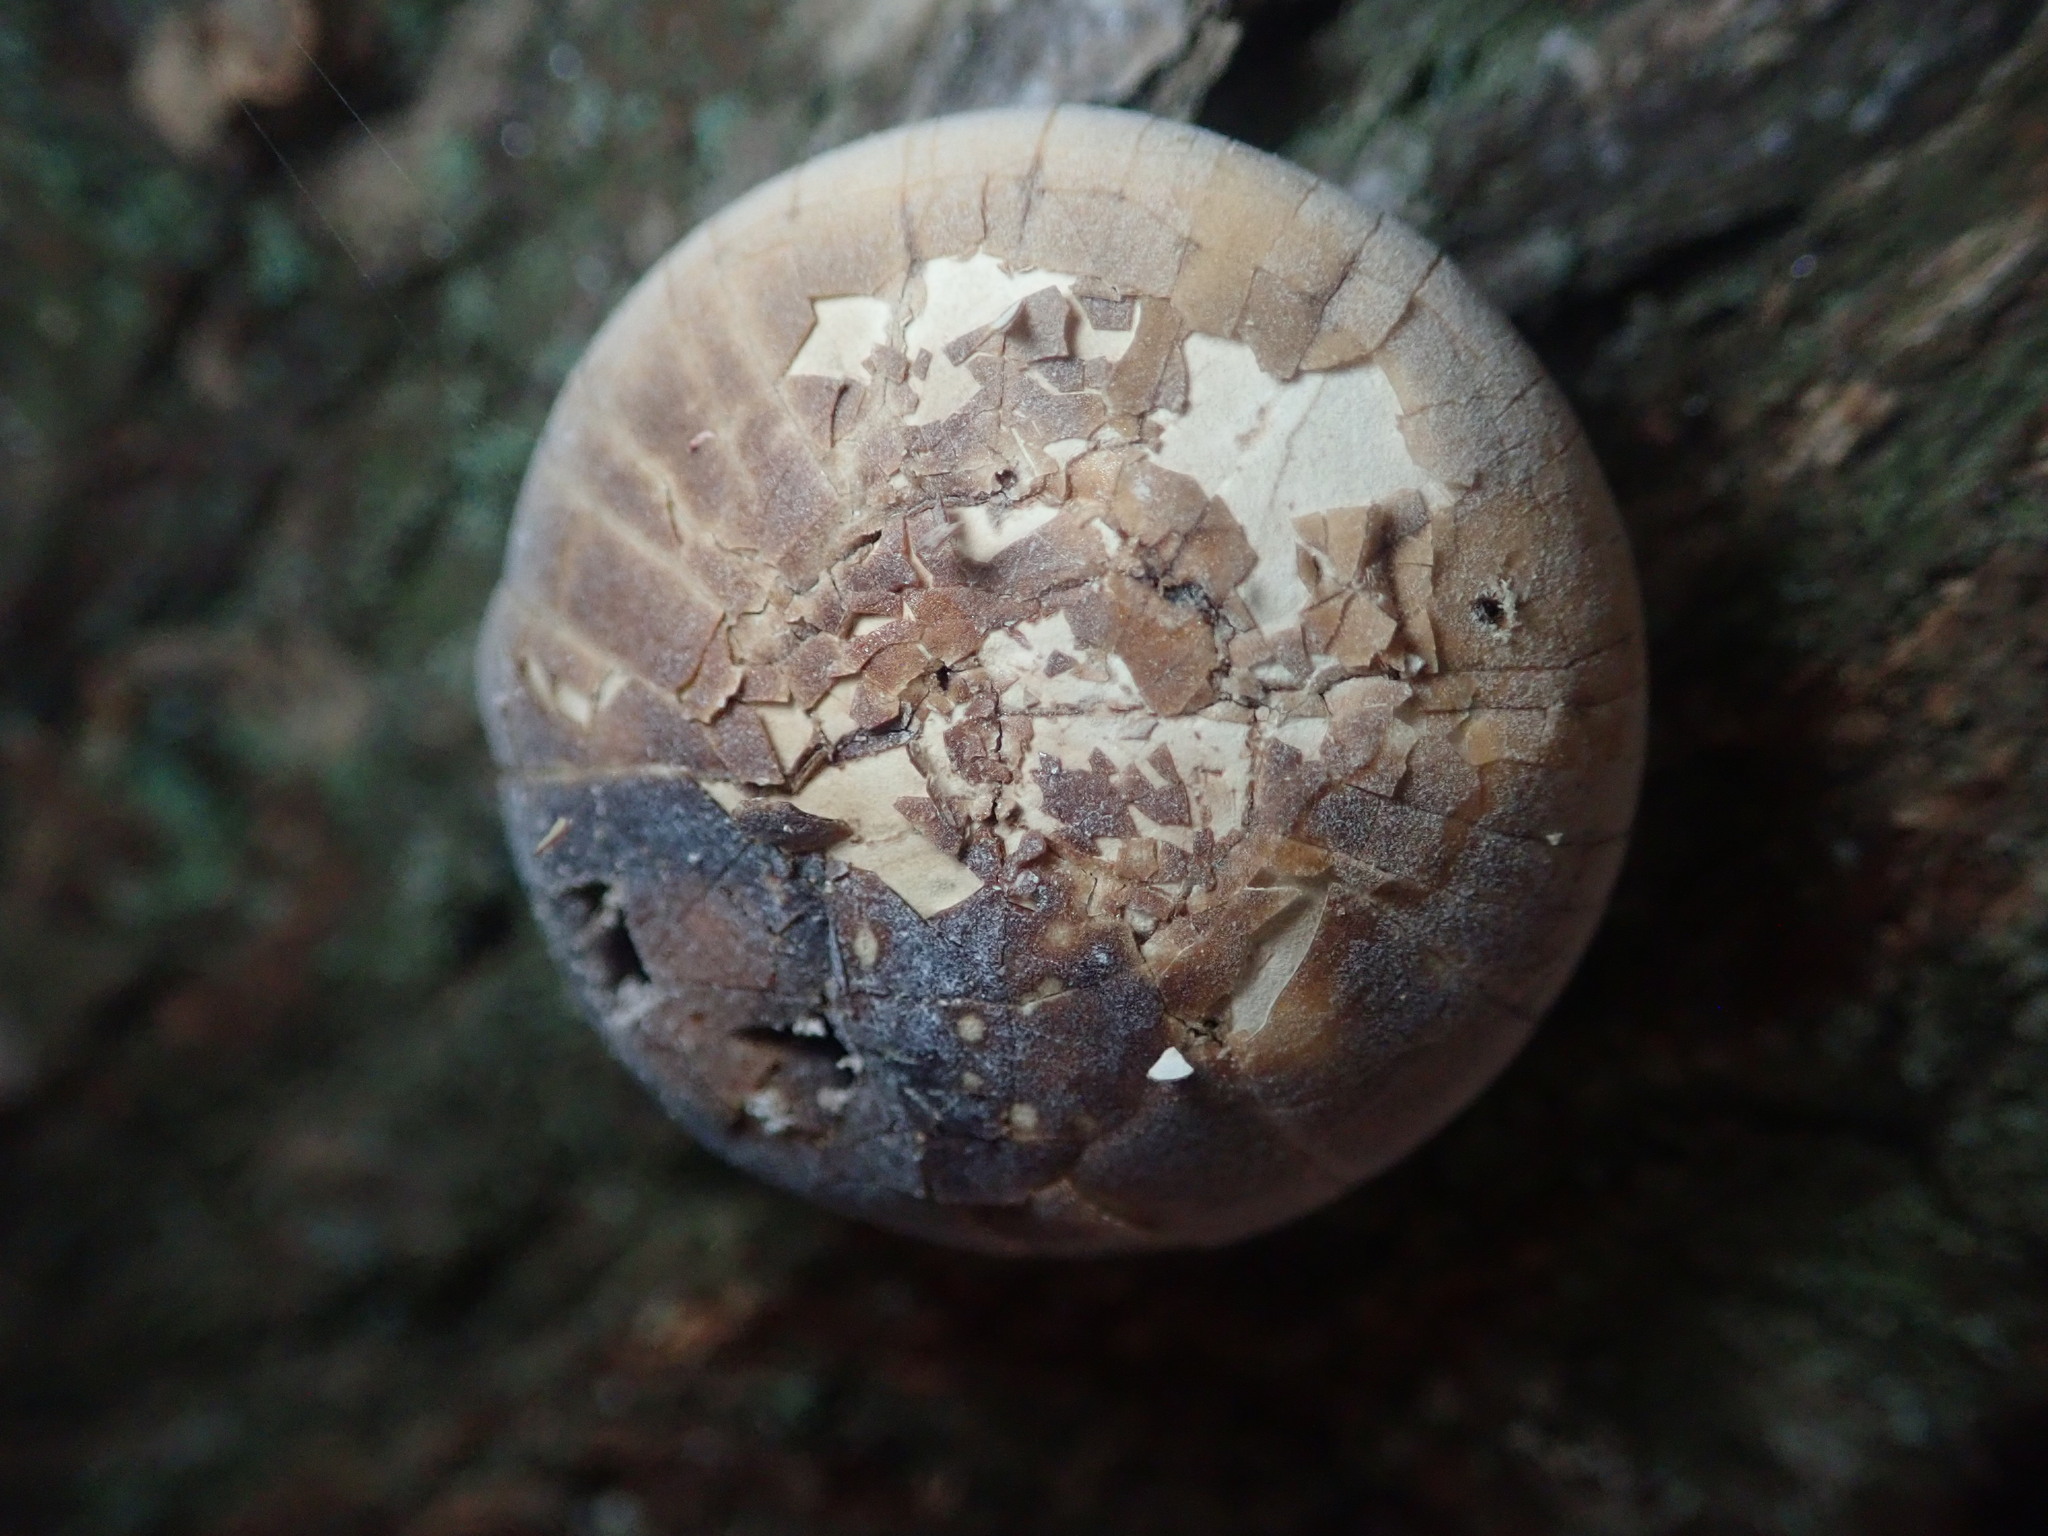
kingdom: Fungi
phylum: Basidiomycota
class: Agaricomycetes
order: Polyporales
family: Polyporaceae
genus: Cryptoporus
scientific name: Cryptoporus volvatus
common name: Veiled polypore
